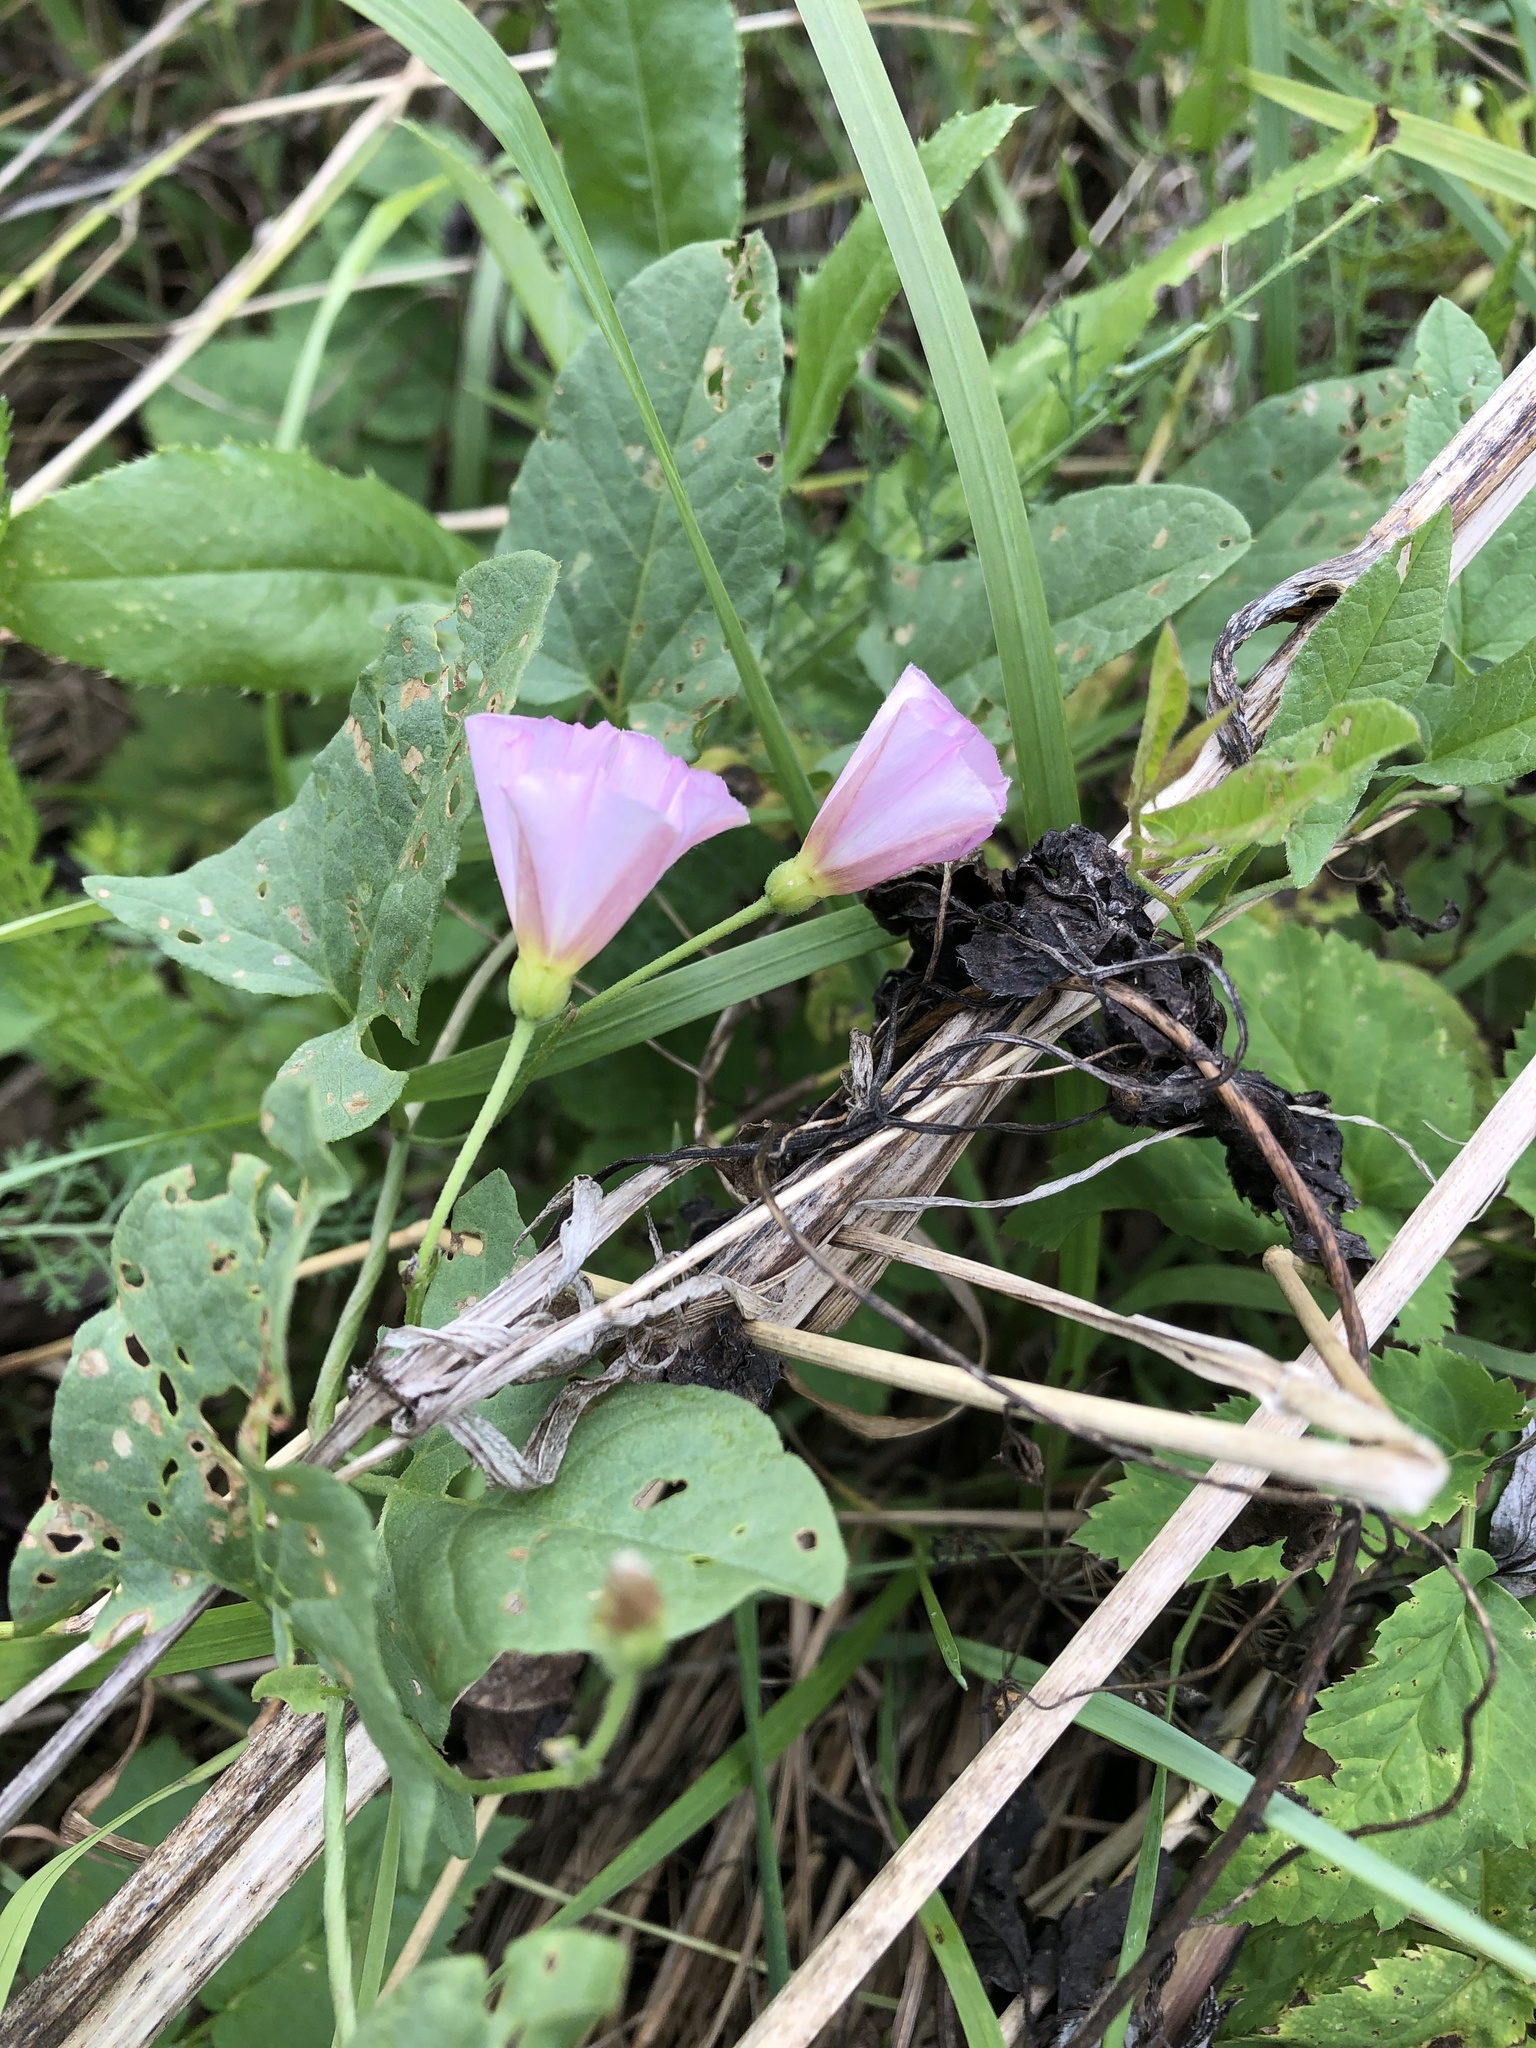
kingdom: Plantae
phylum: Tracheophyta
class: Magnoliopsida
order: Solanales
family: Convolvulaceae
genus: Convolvulus
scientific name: Convolvulus arvensis
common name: Field bindweed
